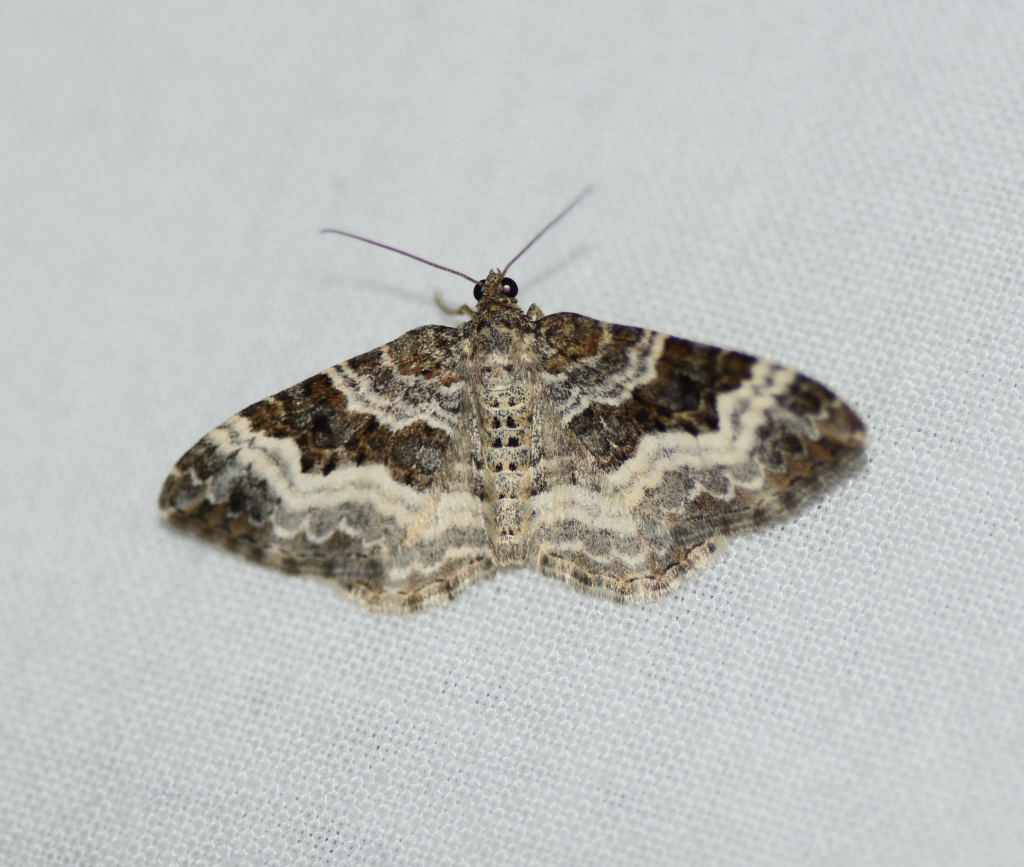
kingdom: Animalia
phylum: Arthropoda
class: Insecta
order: Lepidoptera
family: Geometridae
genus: Epirrhoe
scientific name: Epirrhoe alternata
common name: Common carpet
